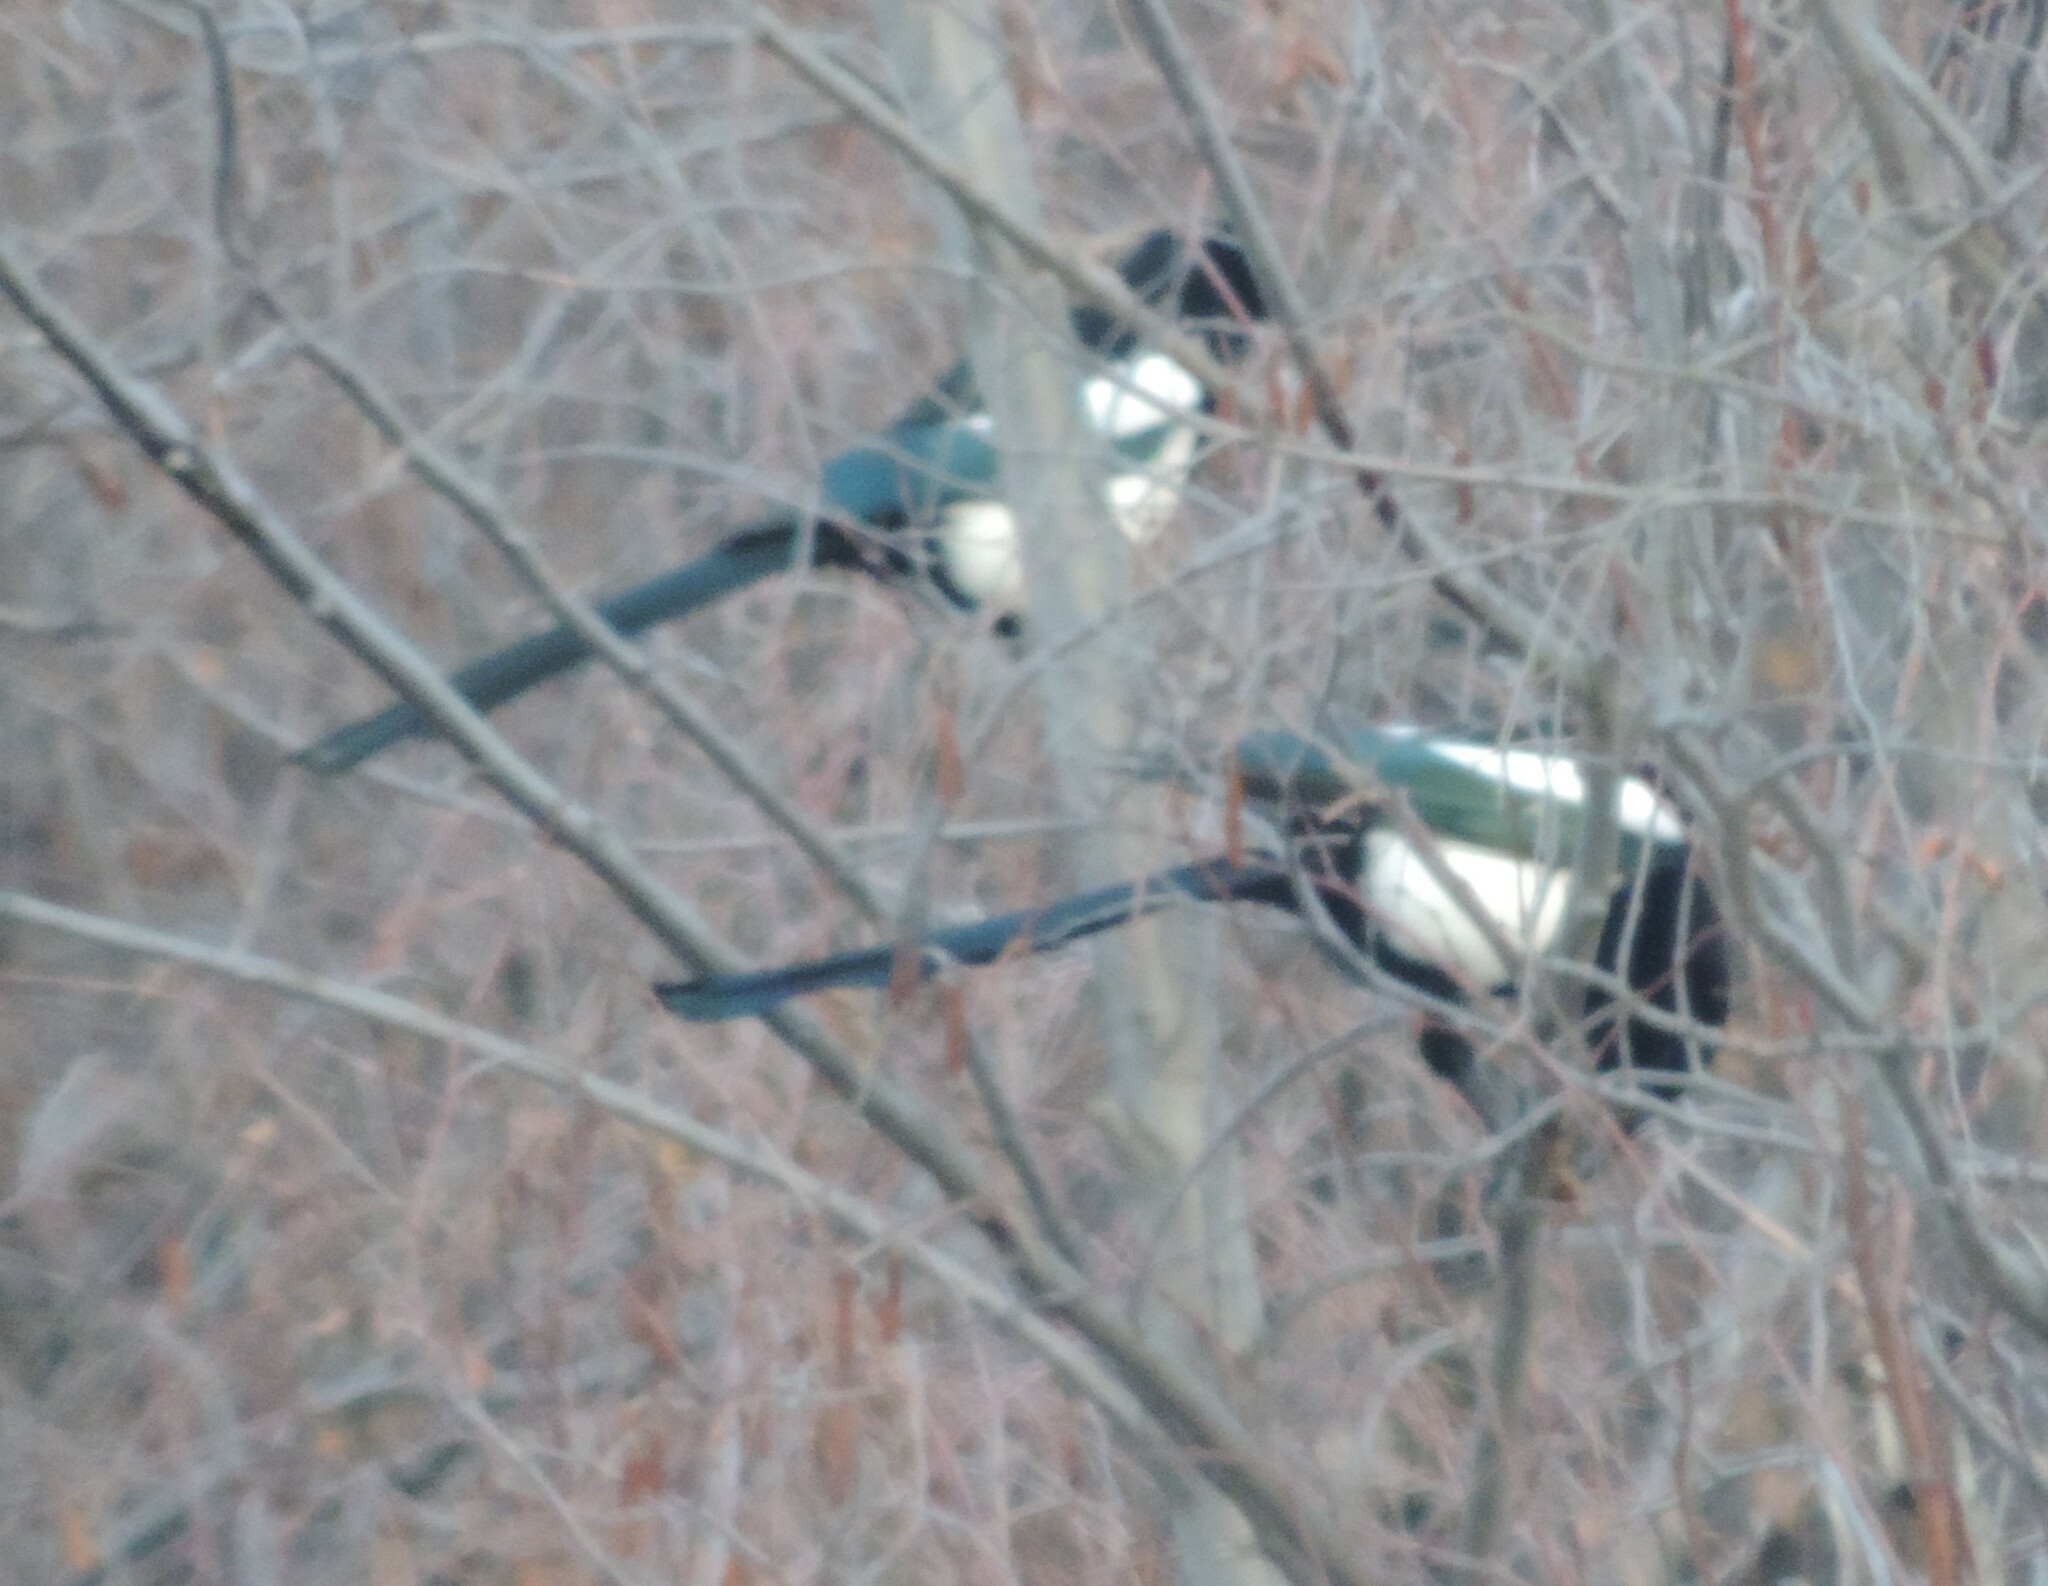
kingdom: Animalia
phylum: Chordata
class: Aves
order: Passeriformes
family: Corvidae
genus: Pica
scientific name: Pica hudsonia
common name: Black-billed magpie
